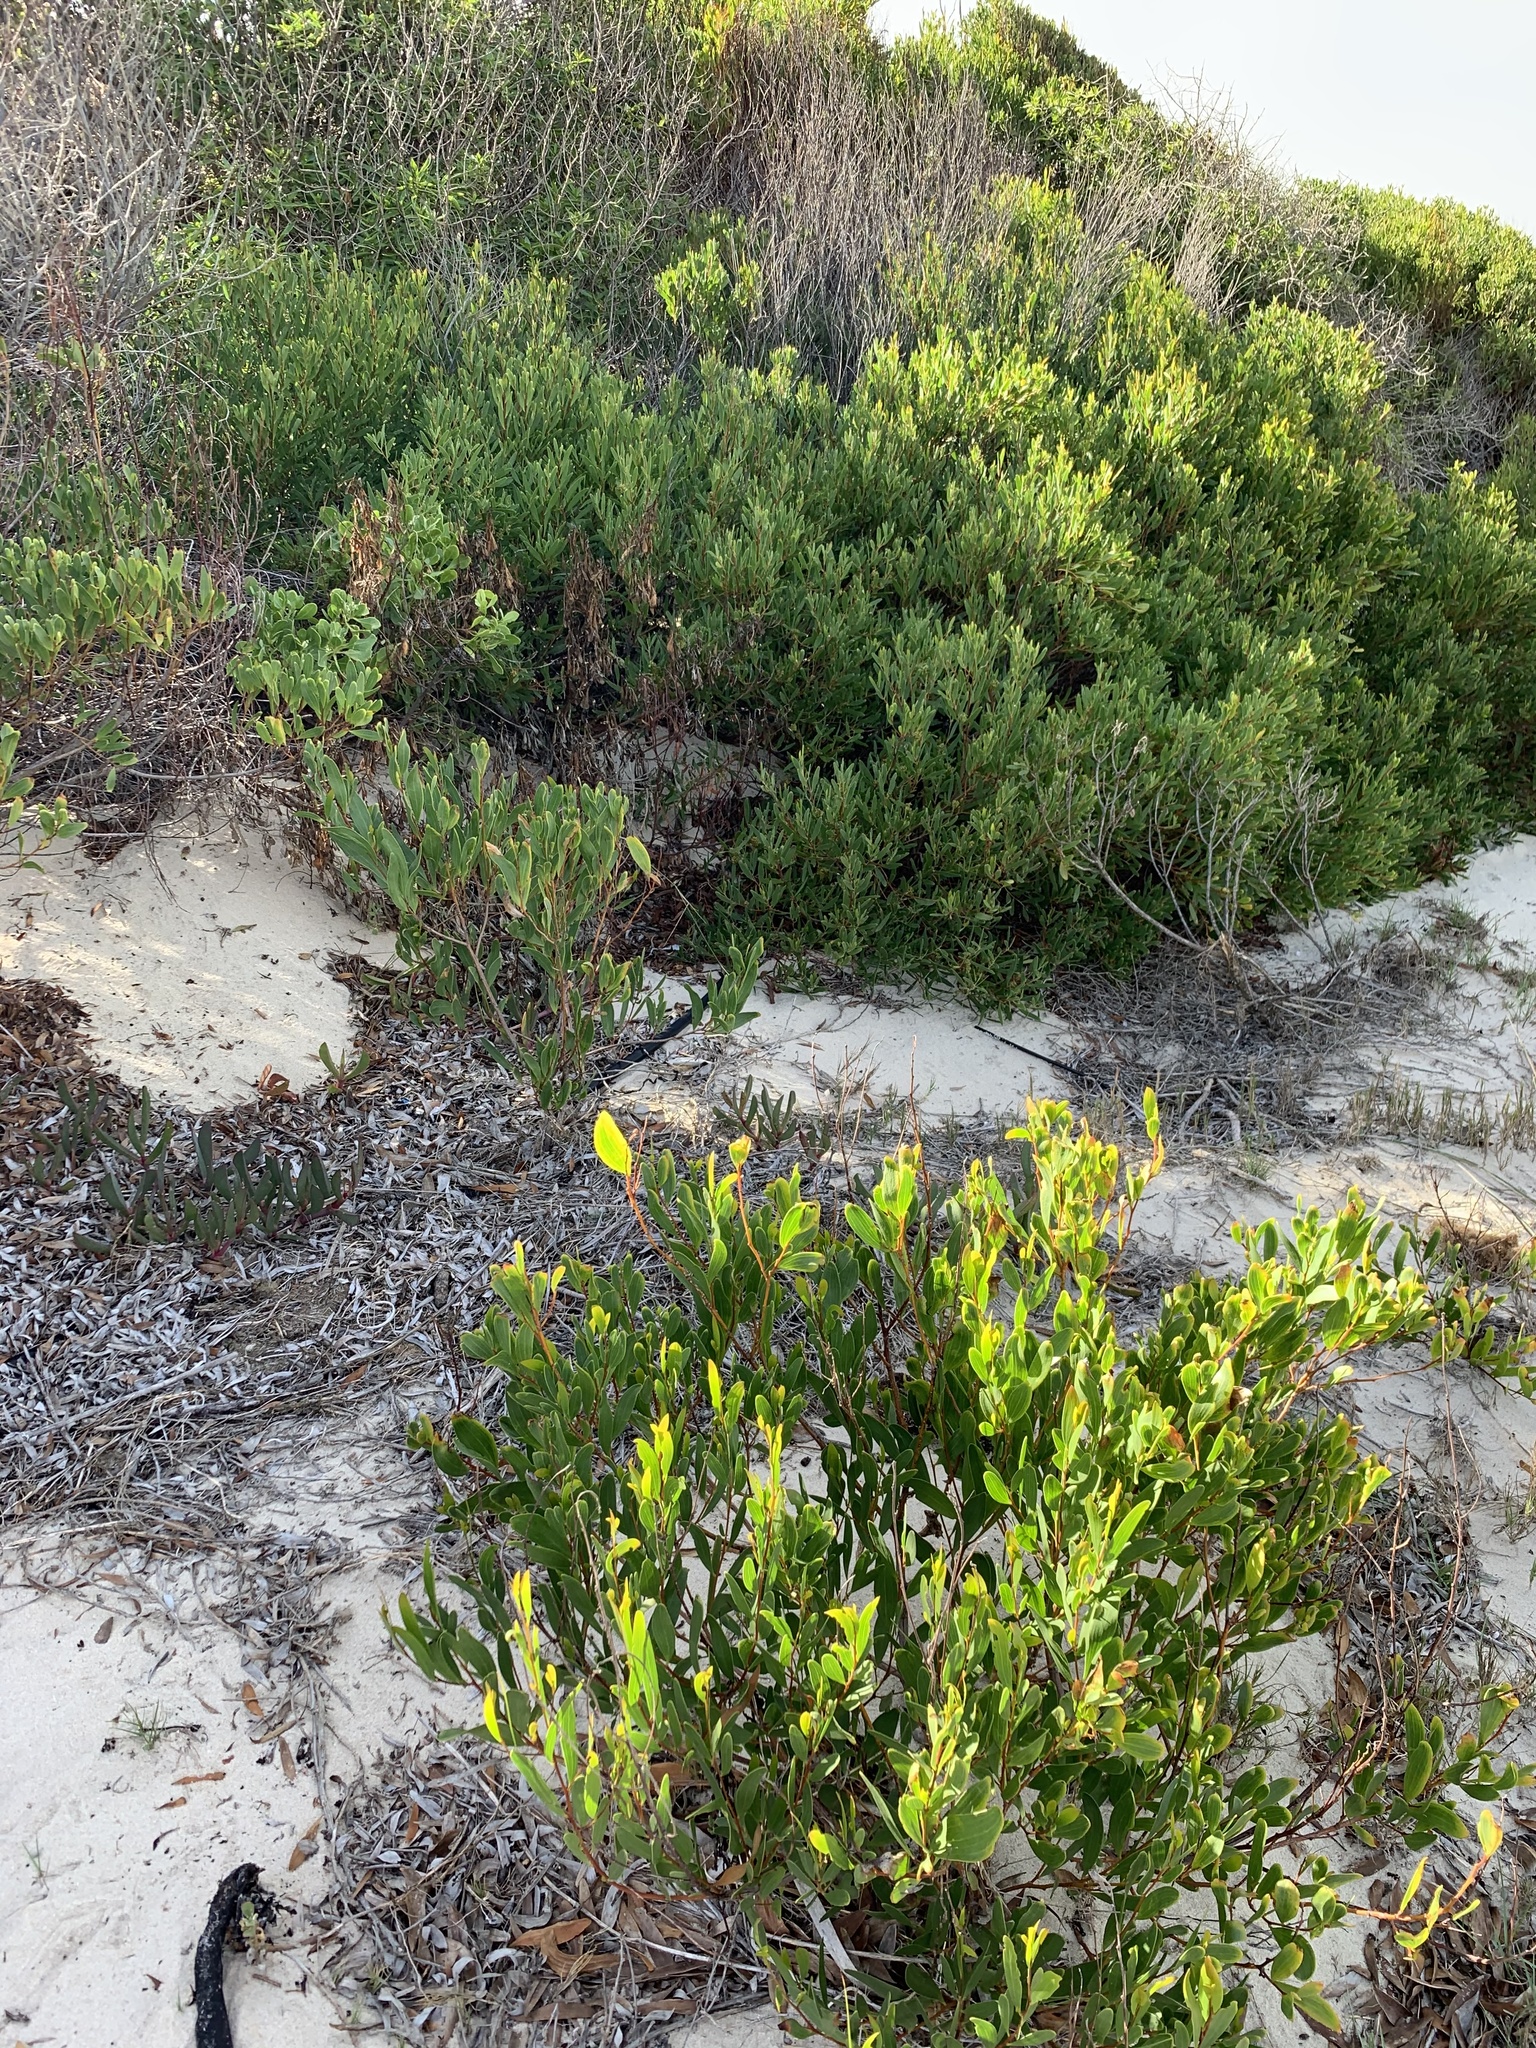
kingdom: Plantae
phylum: Tracheophyta
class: Magnoliopsida
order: Fabales
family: Fabaceae
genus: Acacia
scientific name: Acacia cyclops
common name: Coastal wattle
